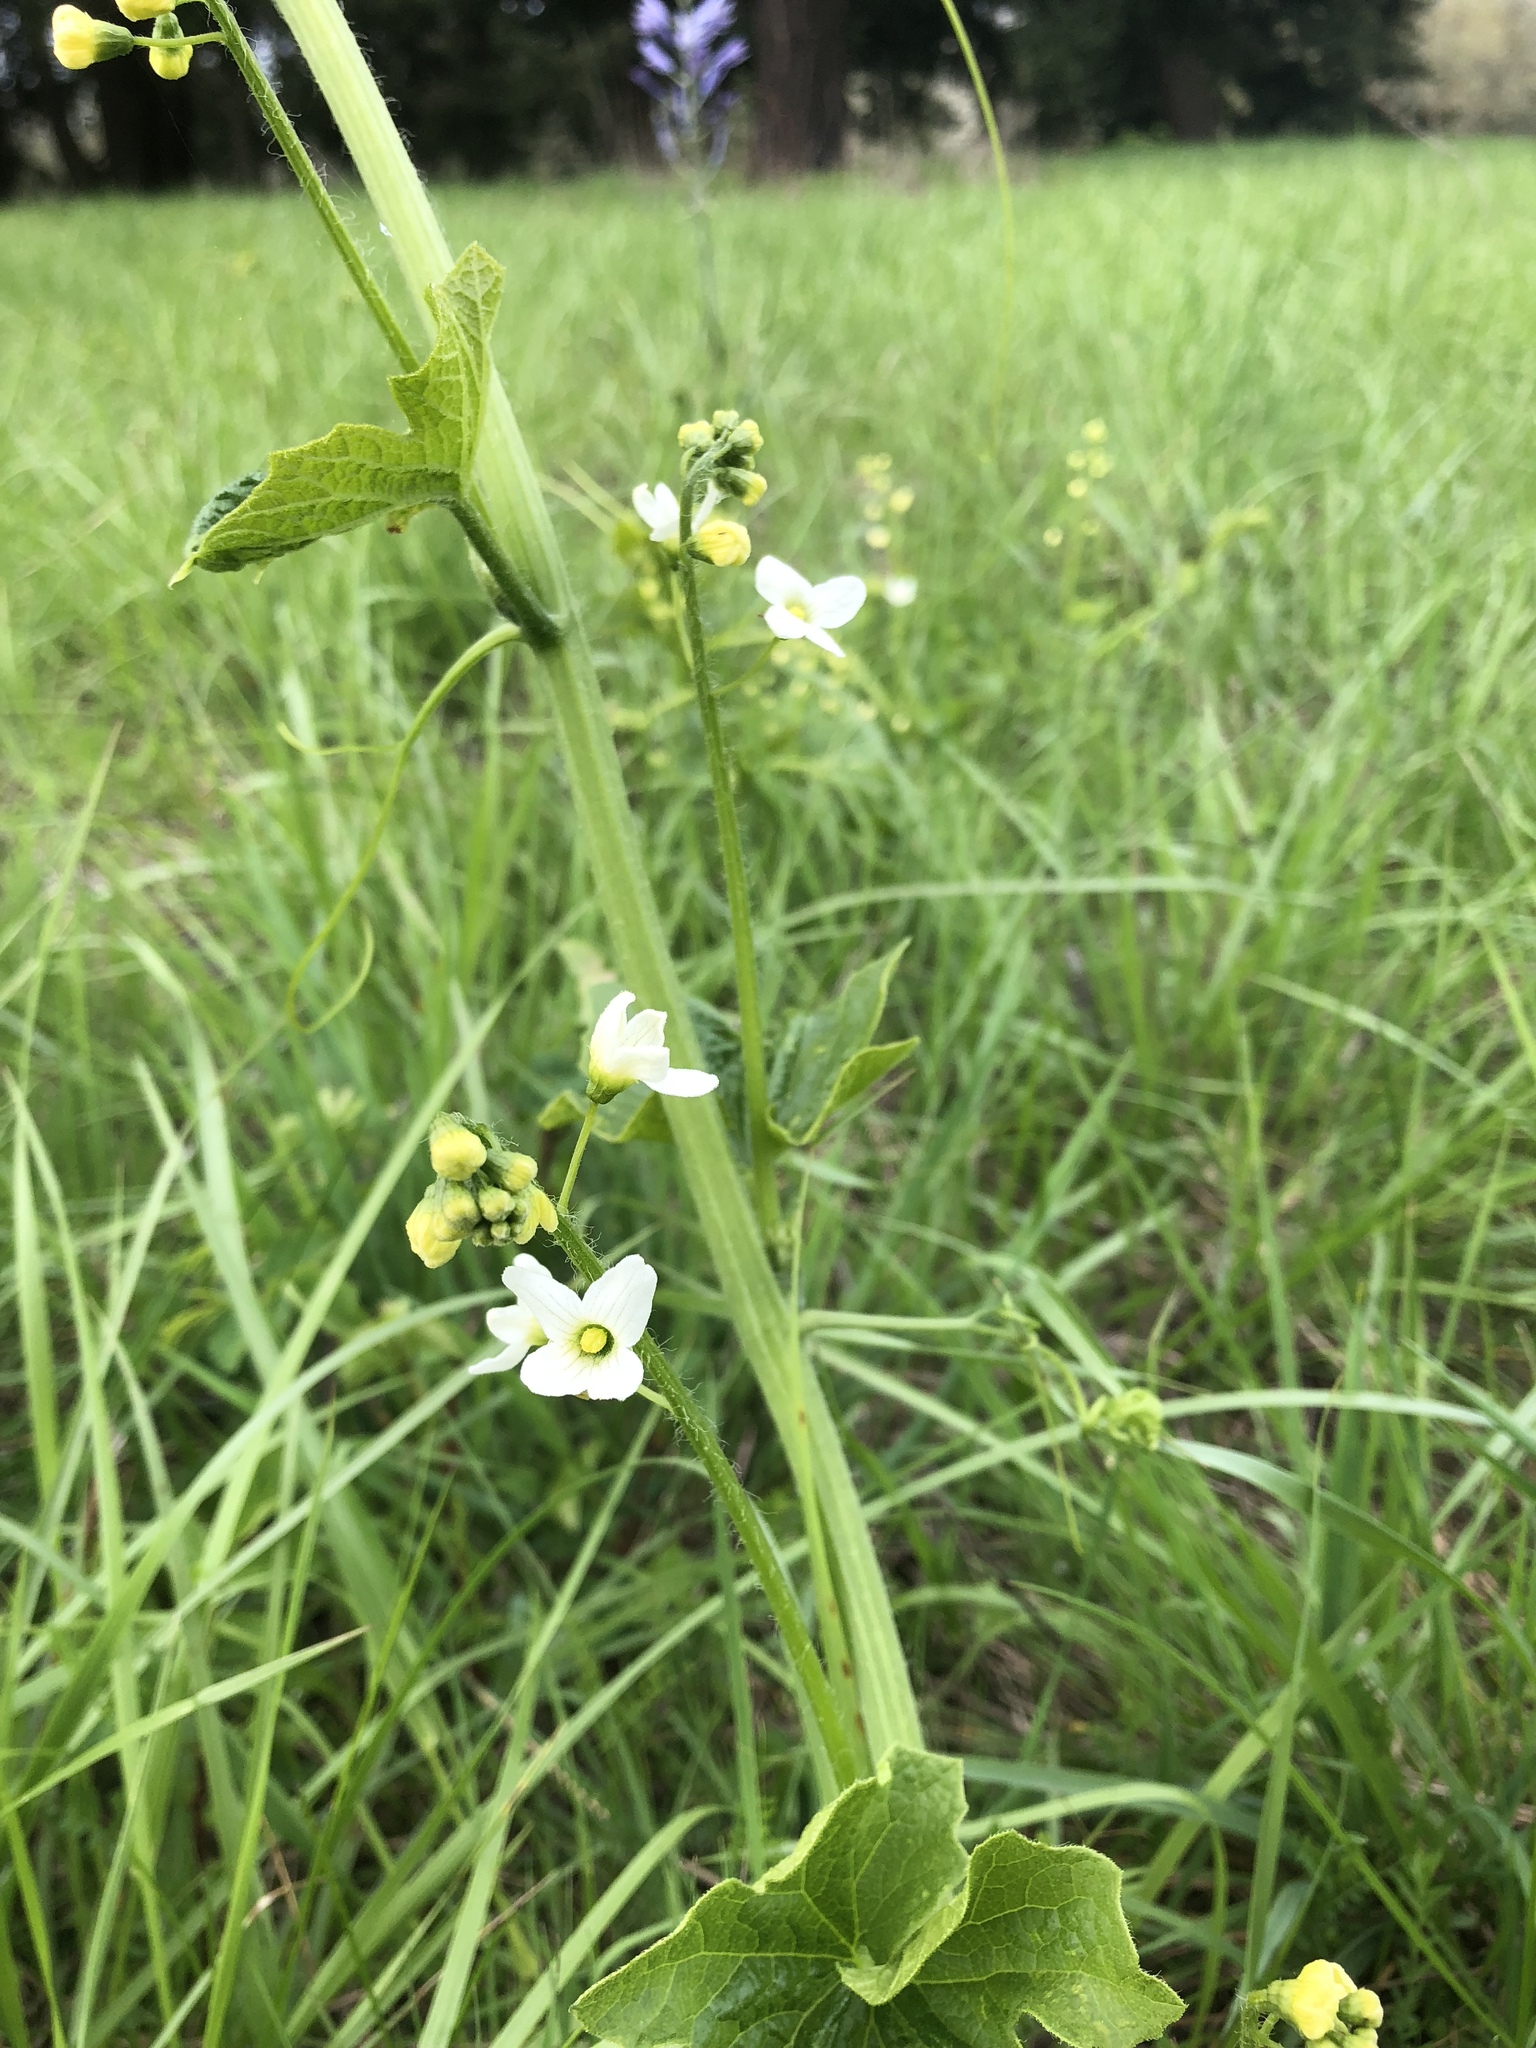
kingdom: Plantae
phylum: Tracheophyta
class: Magnoliopsida
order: Cucurbitales
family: Cucurbitaceae
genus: Marah
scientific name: Marah oregana
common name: Coastal manroot
